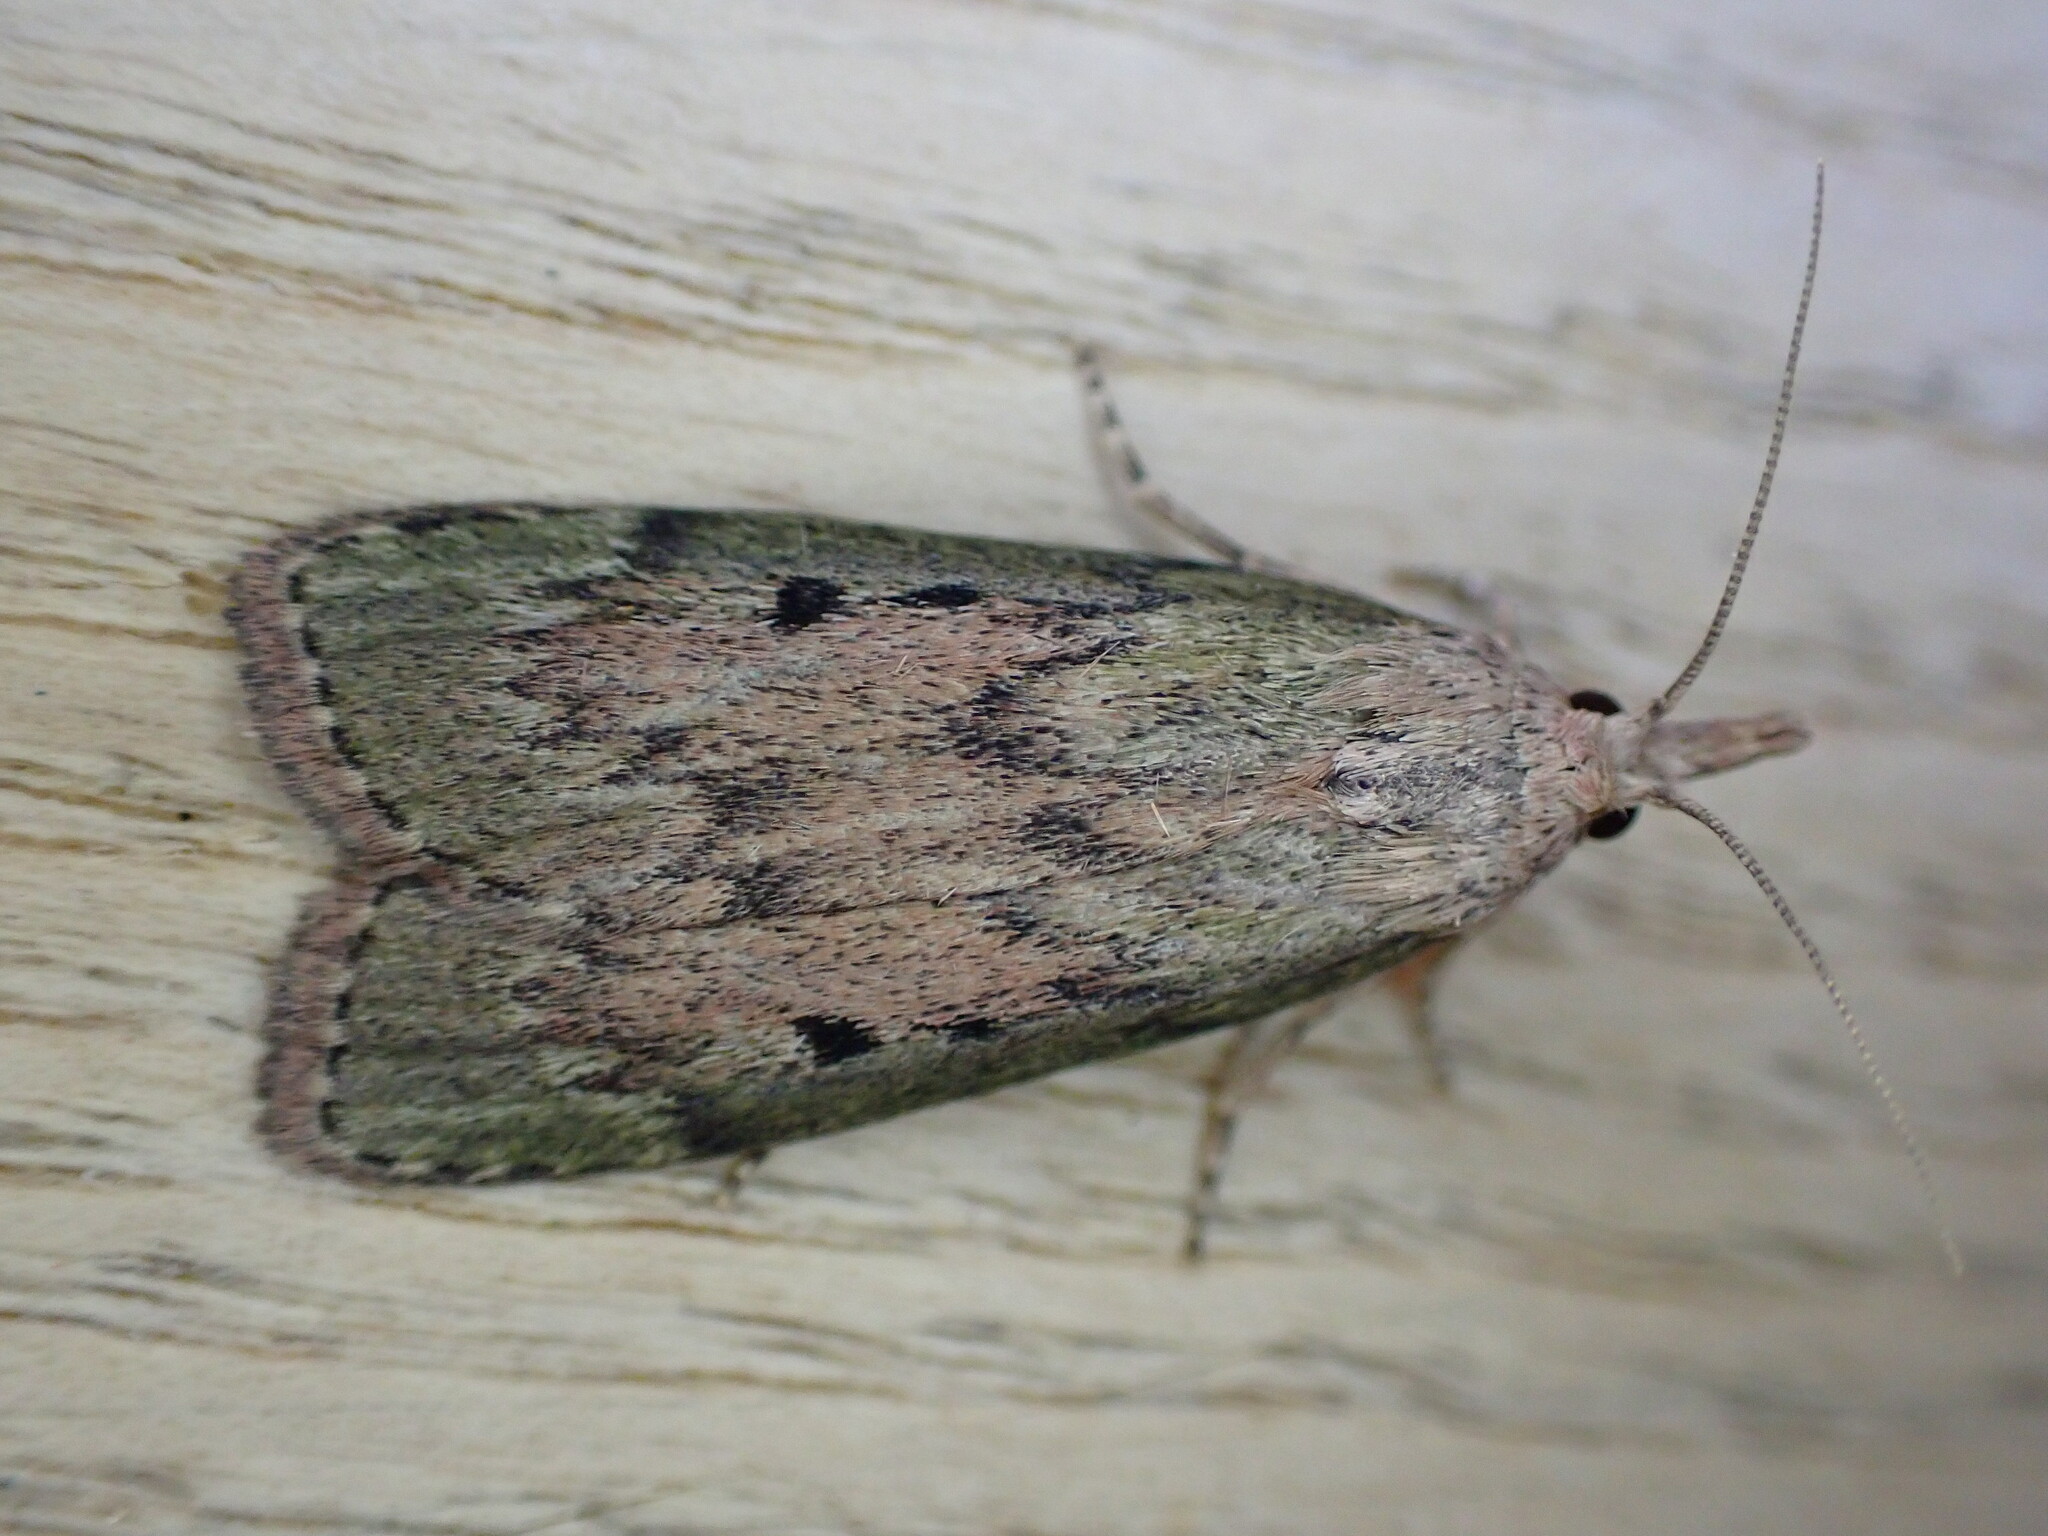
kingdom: Animalia
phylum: Arthropoda
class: Insecta
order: Lepidoptera
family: Pyralidae
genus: Aphomia
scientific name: Aphomia sociella
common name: Bee moth
